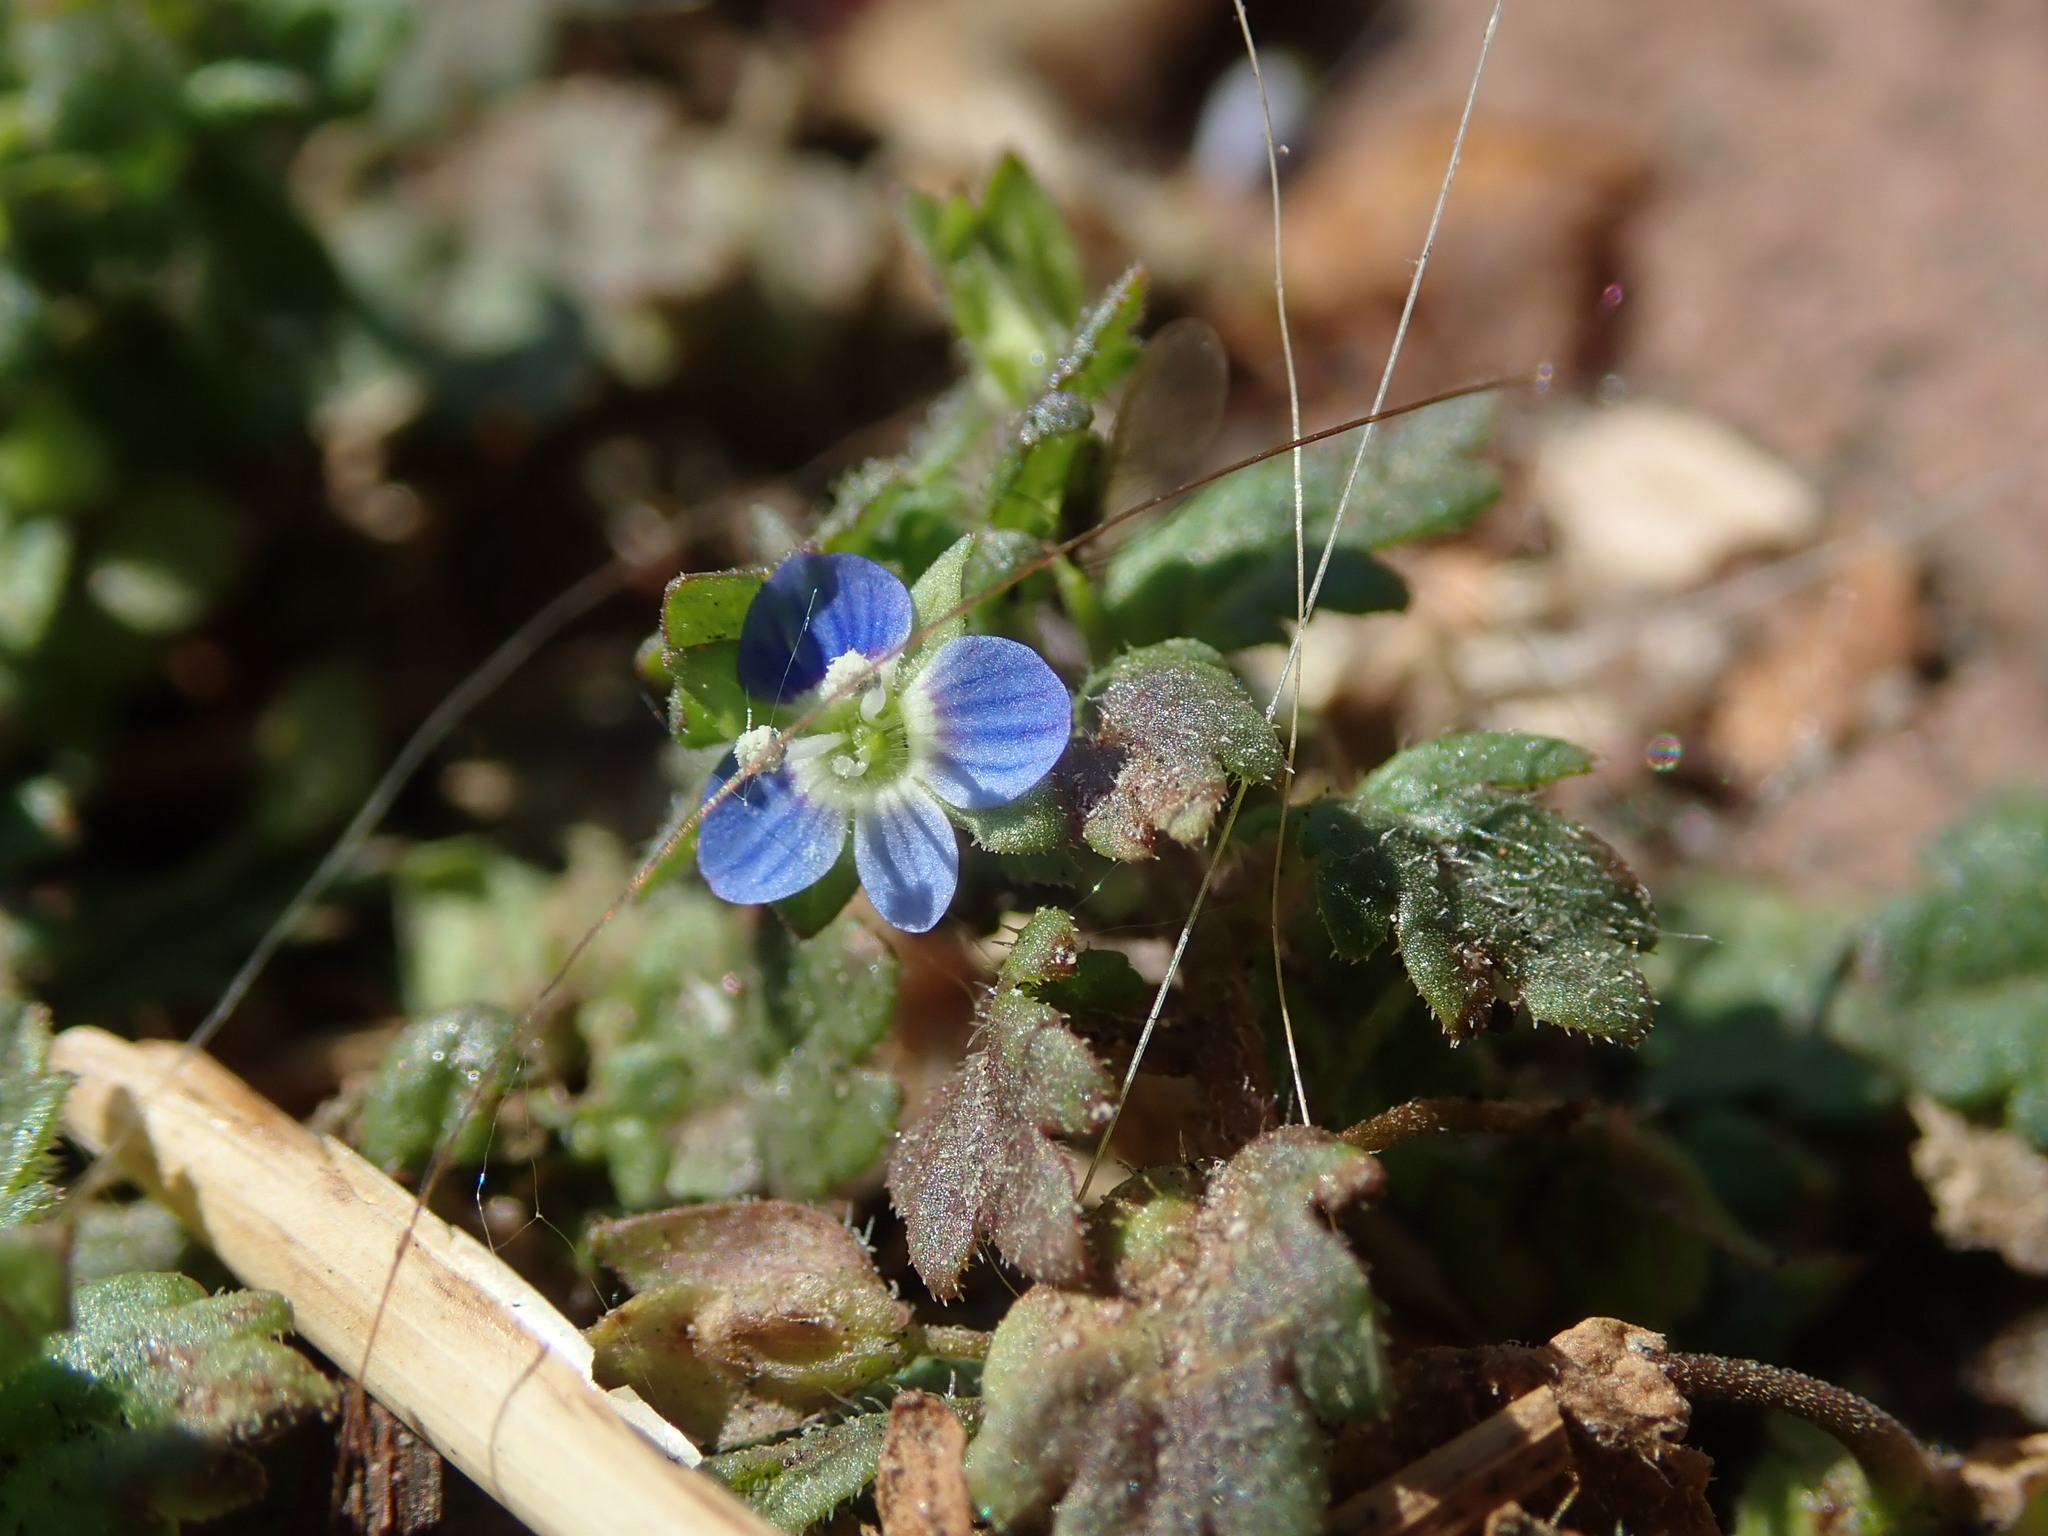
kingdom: Plantae
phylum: Tracheophyta
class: Magnoliopsida
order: Lamiales
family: Plantaginaceae
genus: Veronica
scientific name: Veronica polita
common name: Grey field-speedwell
